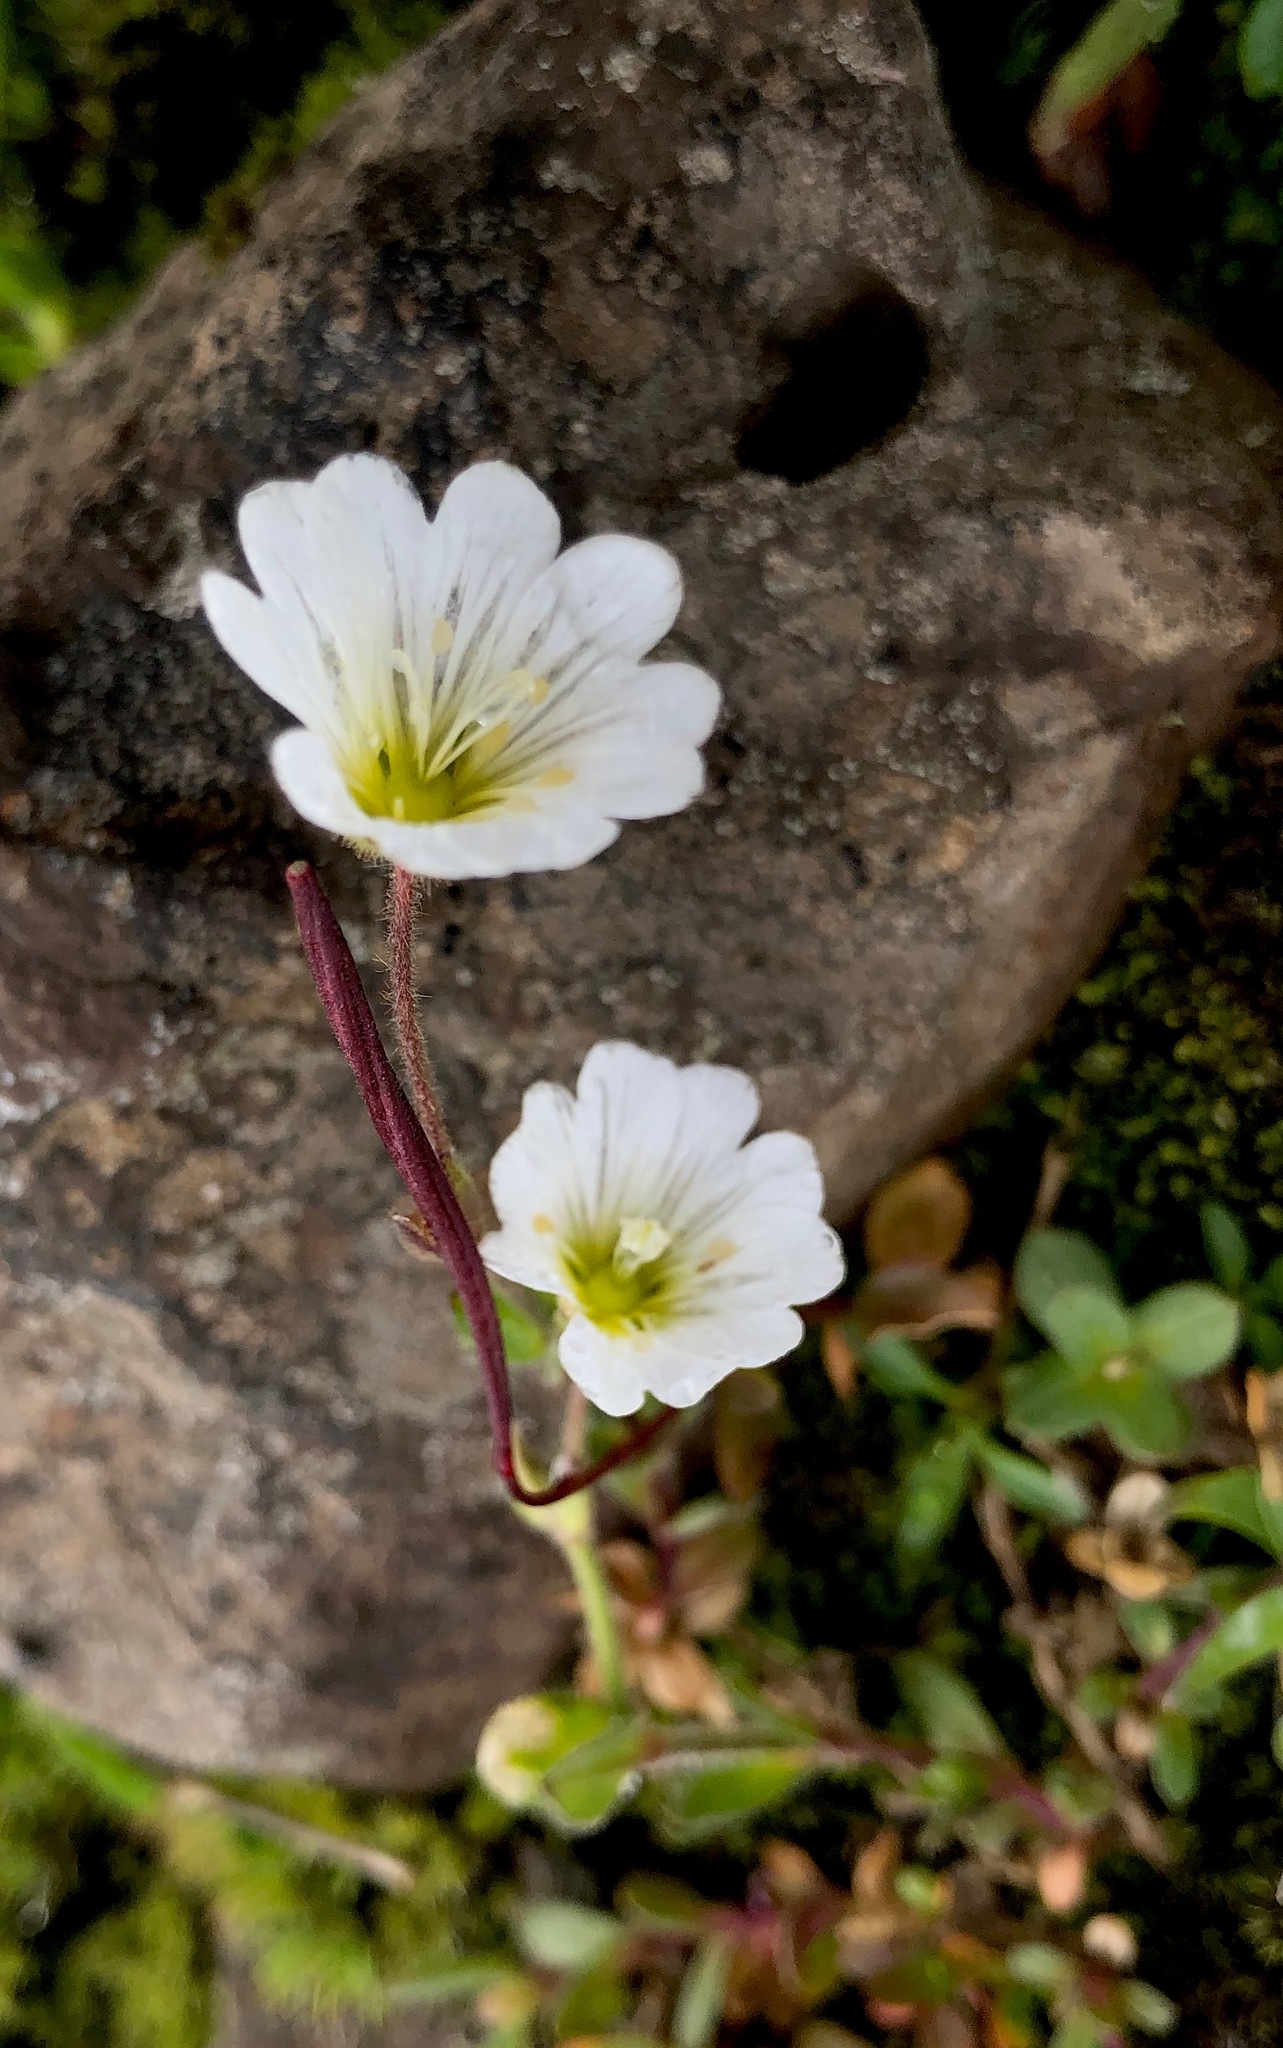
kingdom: Plantae
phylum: Tracheophyta
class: Magnoliopsida
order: Caryophyllales
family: Caryophyllaceae
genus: Dichodon
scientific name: Dichodon cerastoides
